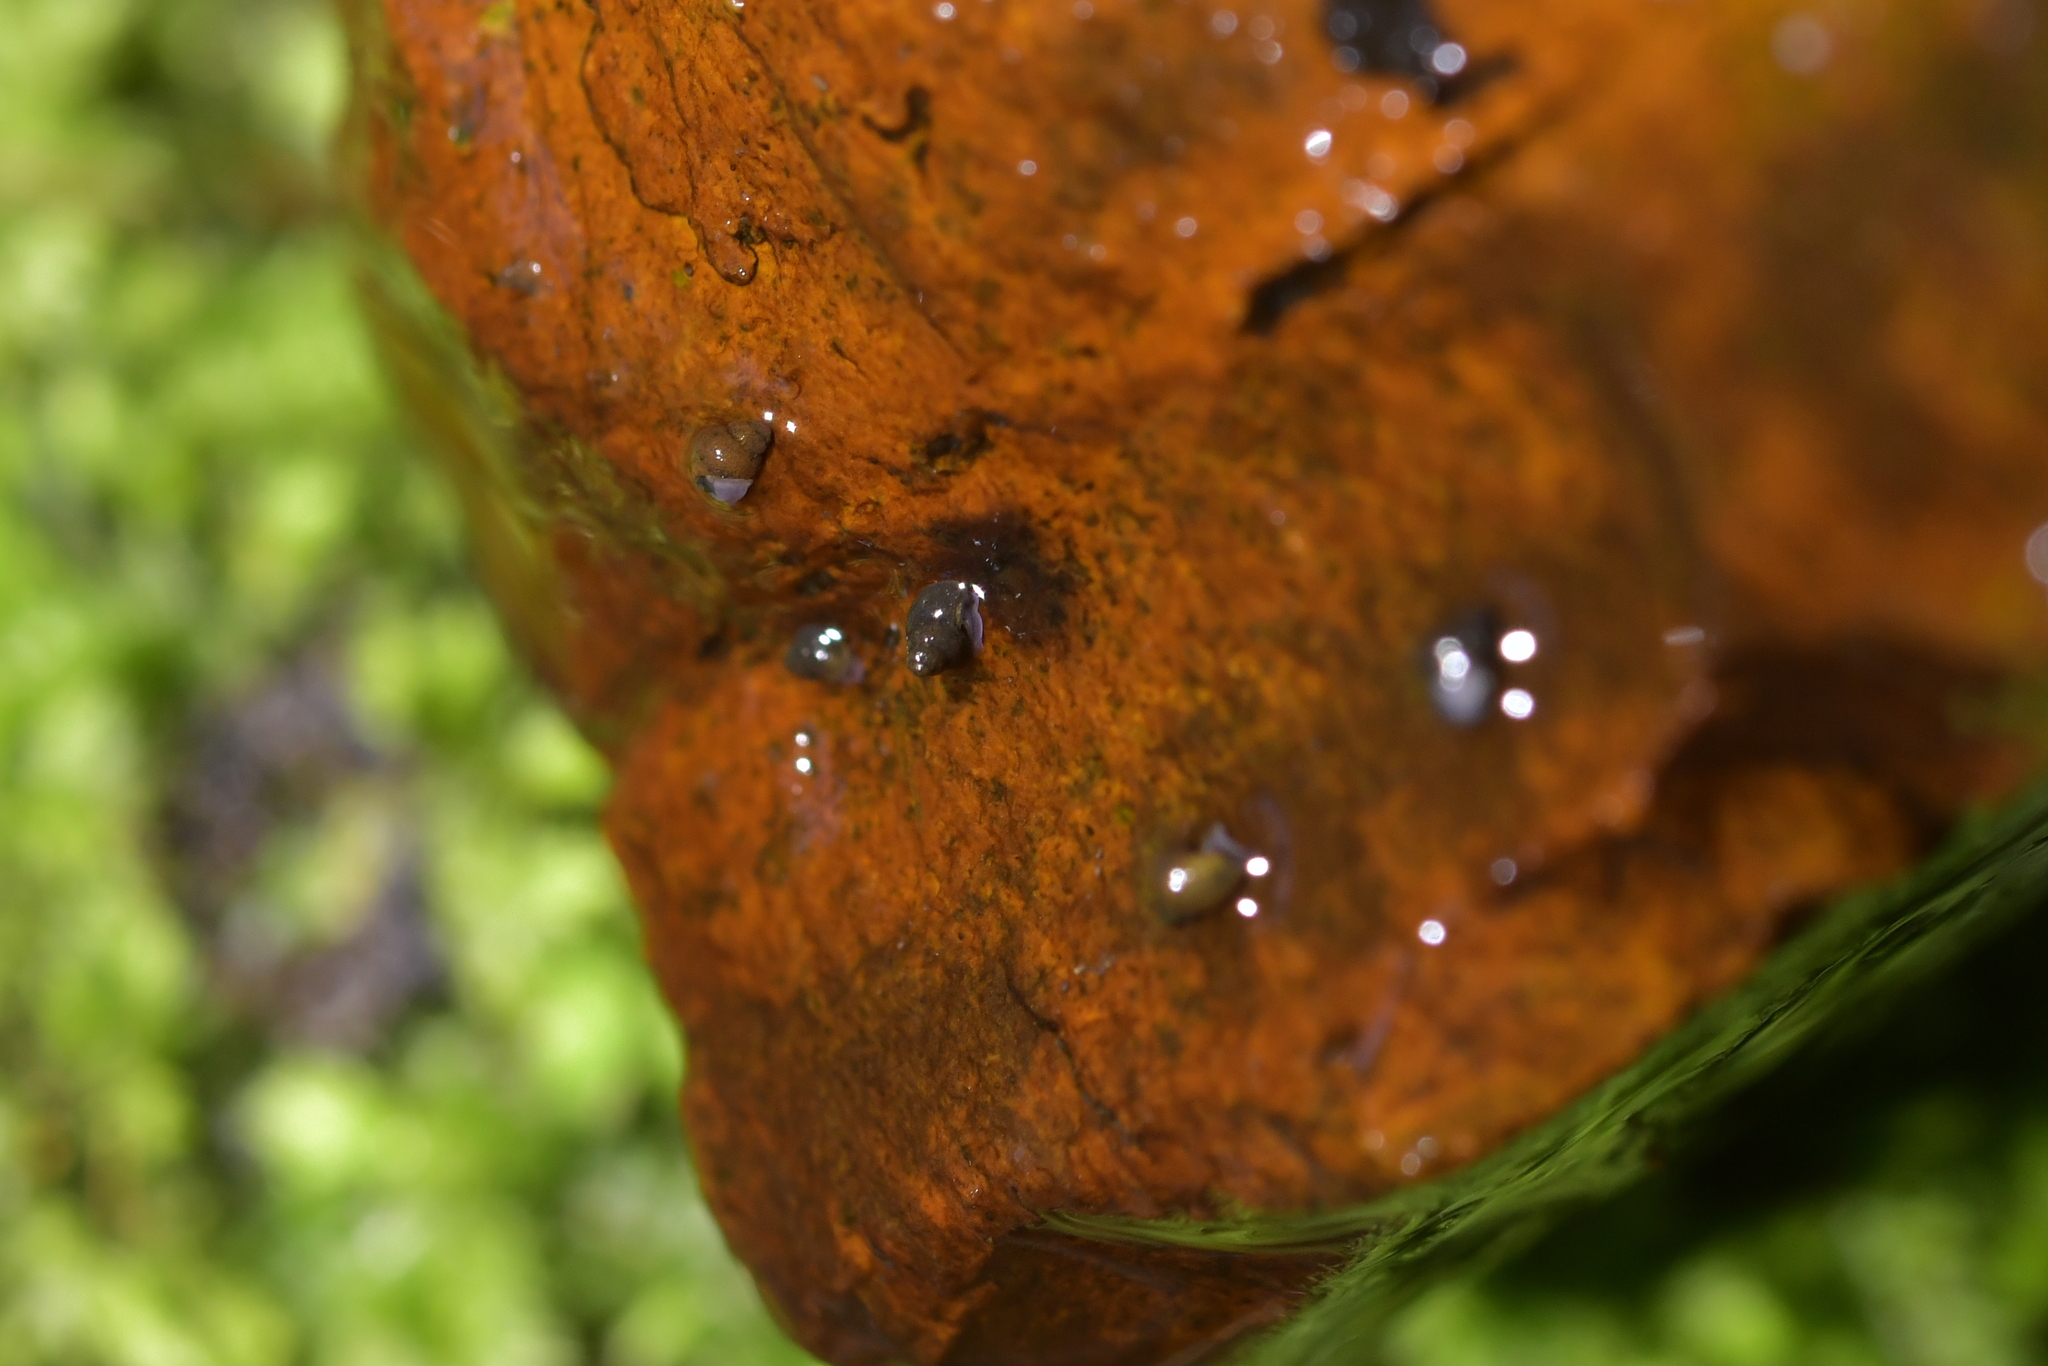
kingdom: Animalia
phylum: Mollusca
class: Gastropoda
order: Littorinimorpha
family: Tateidae
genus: Potamopyrgus
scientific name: Potamopyrgus antipodarum
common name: Jenkins' spire snail
